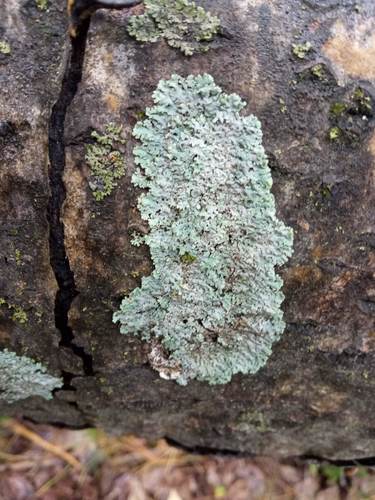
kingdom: Fungi
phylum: Ascomycota
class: Lecanoromycetes
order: Caliciales
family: Physciaceae
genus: Physcia
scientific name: Physcia
